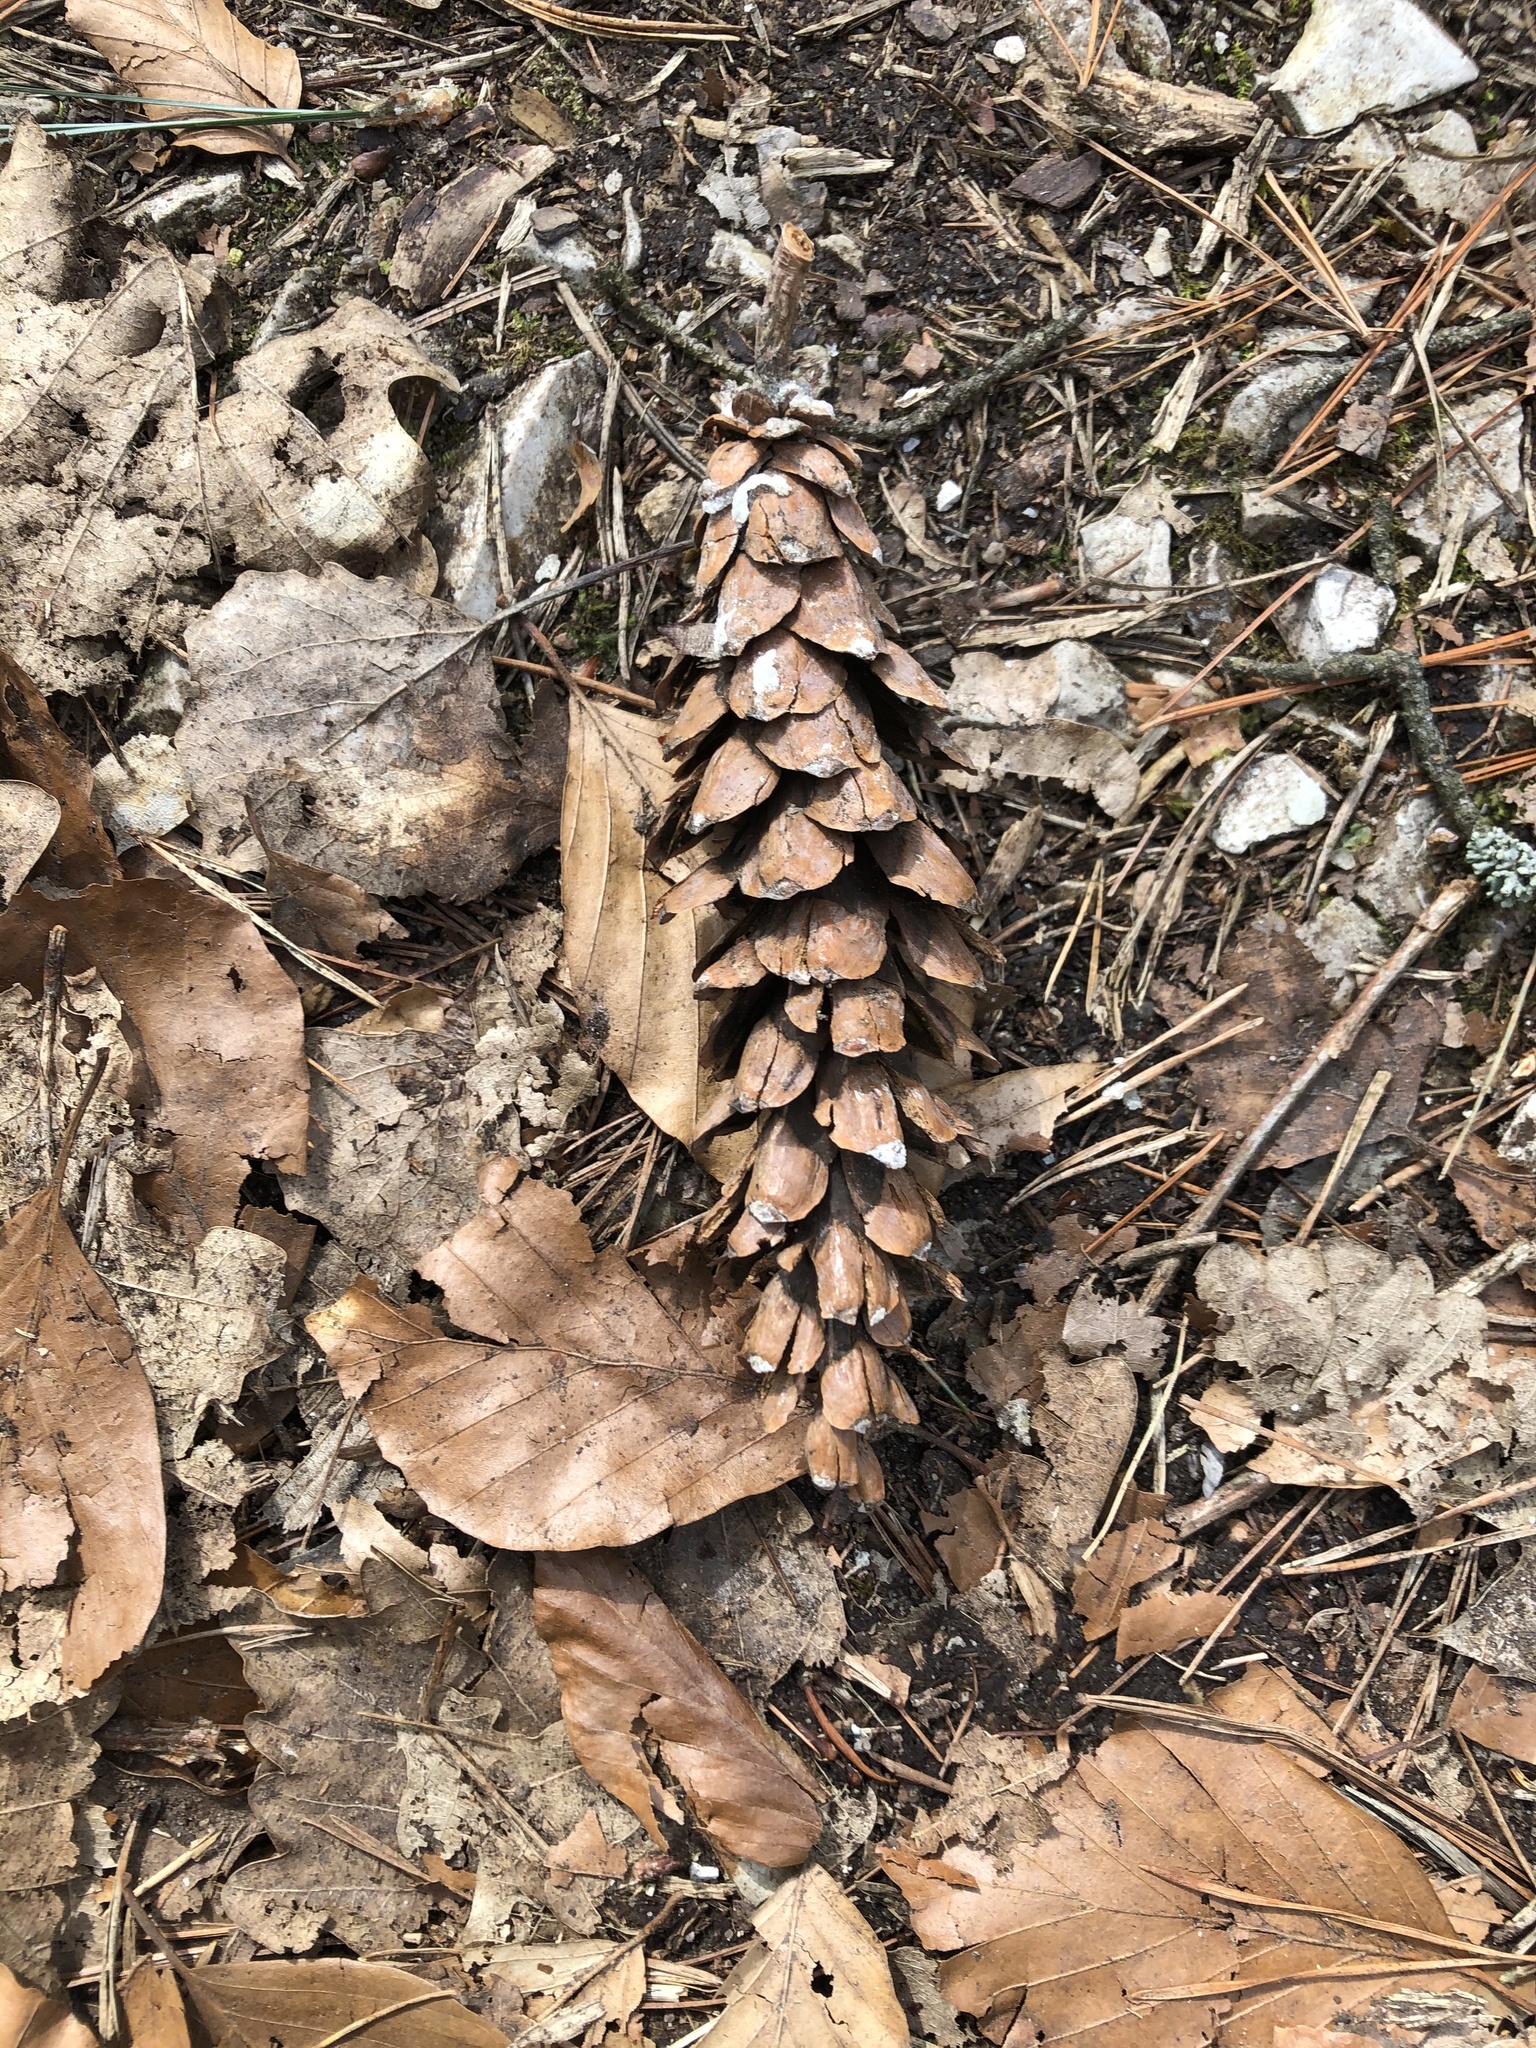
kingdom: Plantae
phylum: Tracheophyta
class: Pinopsida
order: Pinales
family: Pinaceae
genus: Pinus
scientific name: Pinus strobus
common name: Weymouth pine
